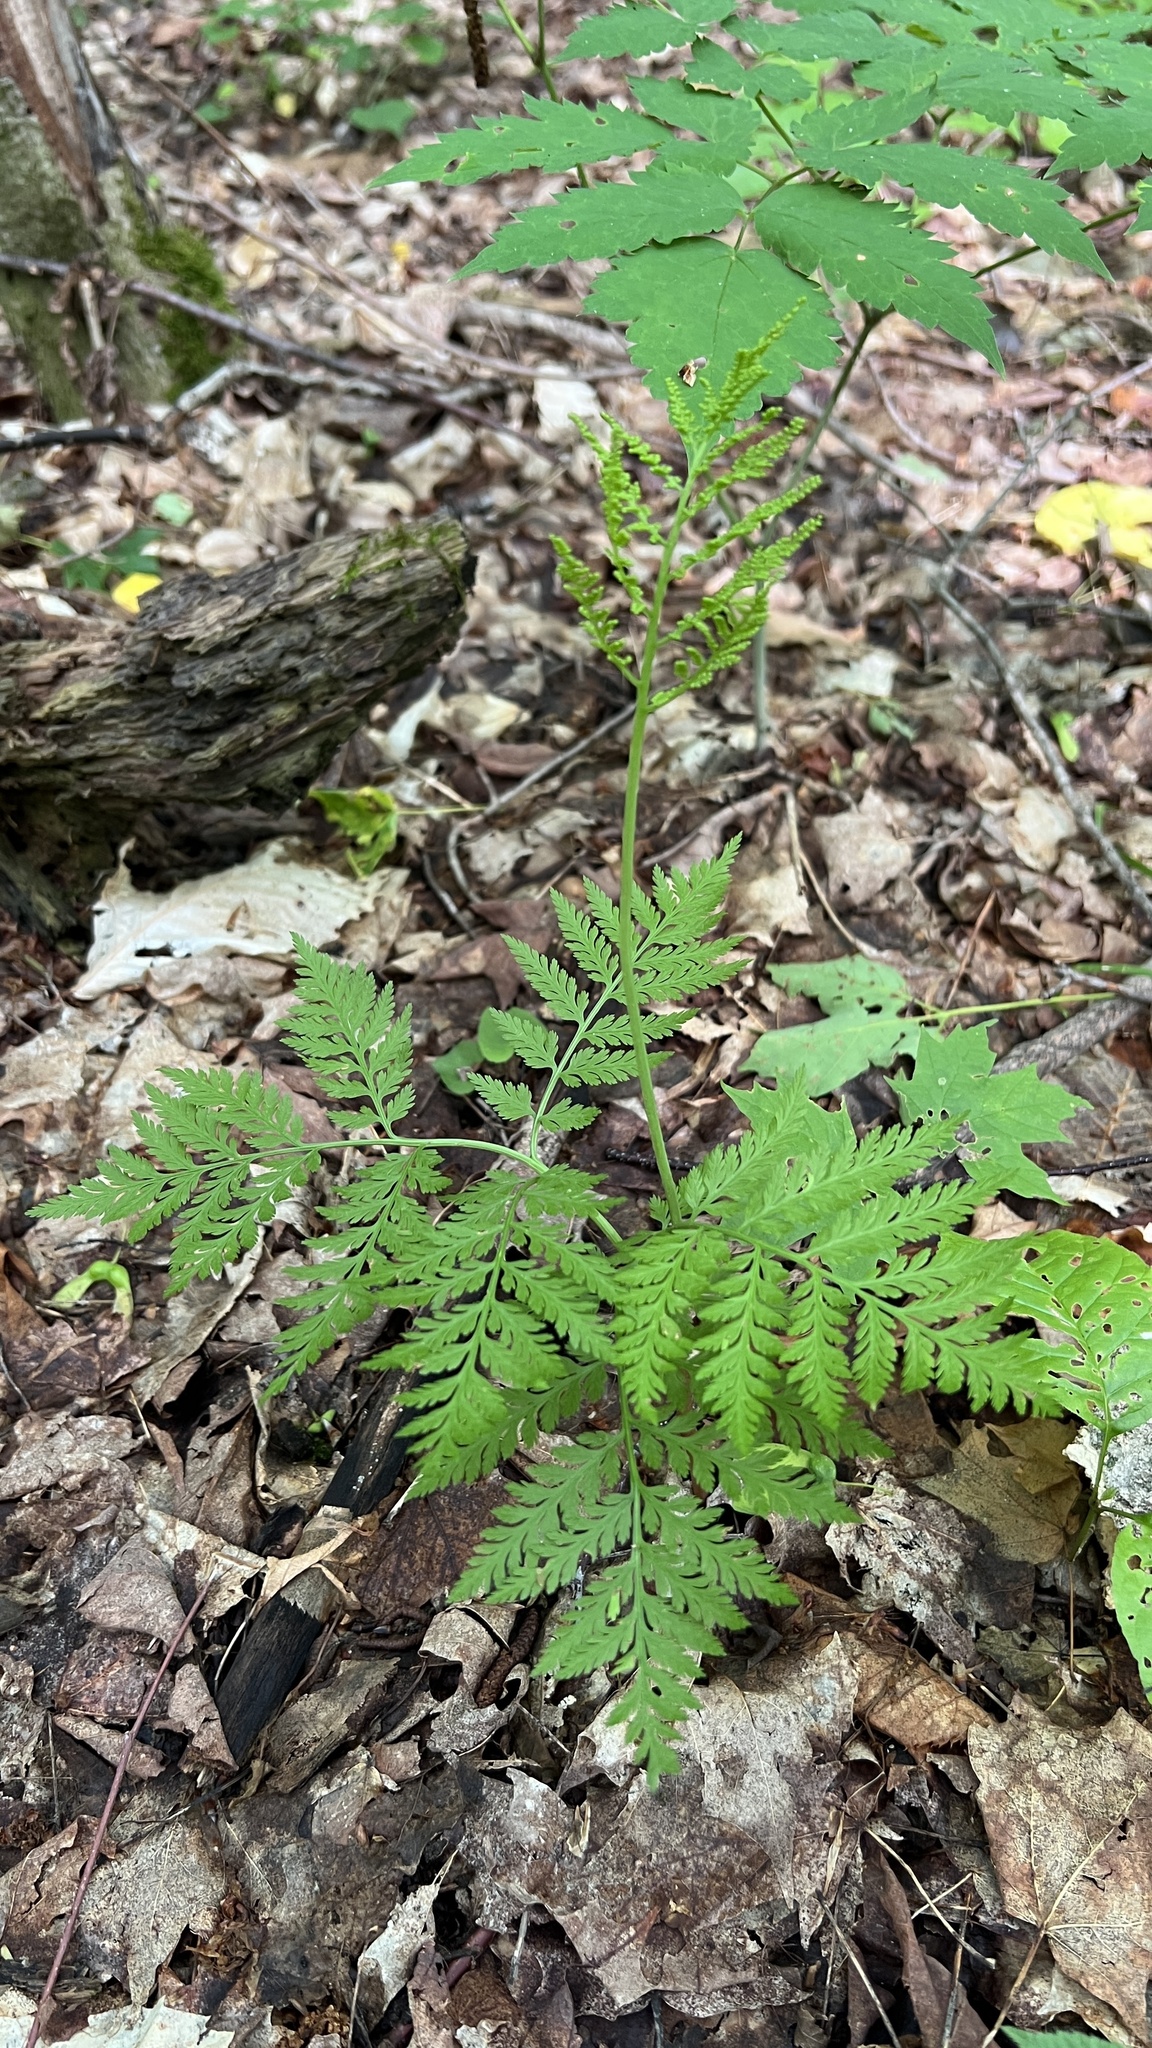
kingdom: Plantae
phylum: Tracheophyta
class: Polypodiopsida
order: Ophioglossales
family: Ophioglossaceae
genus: Botrypus
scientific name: Botrypus virginianus
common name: Common grapefern
